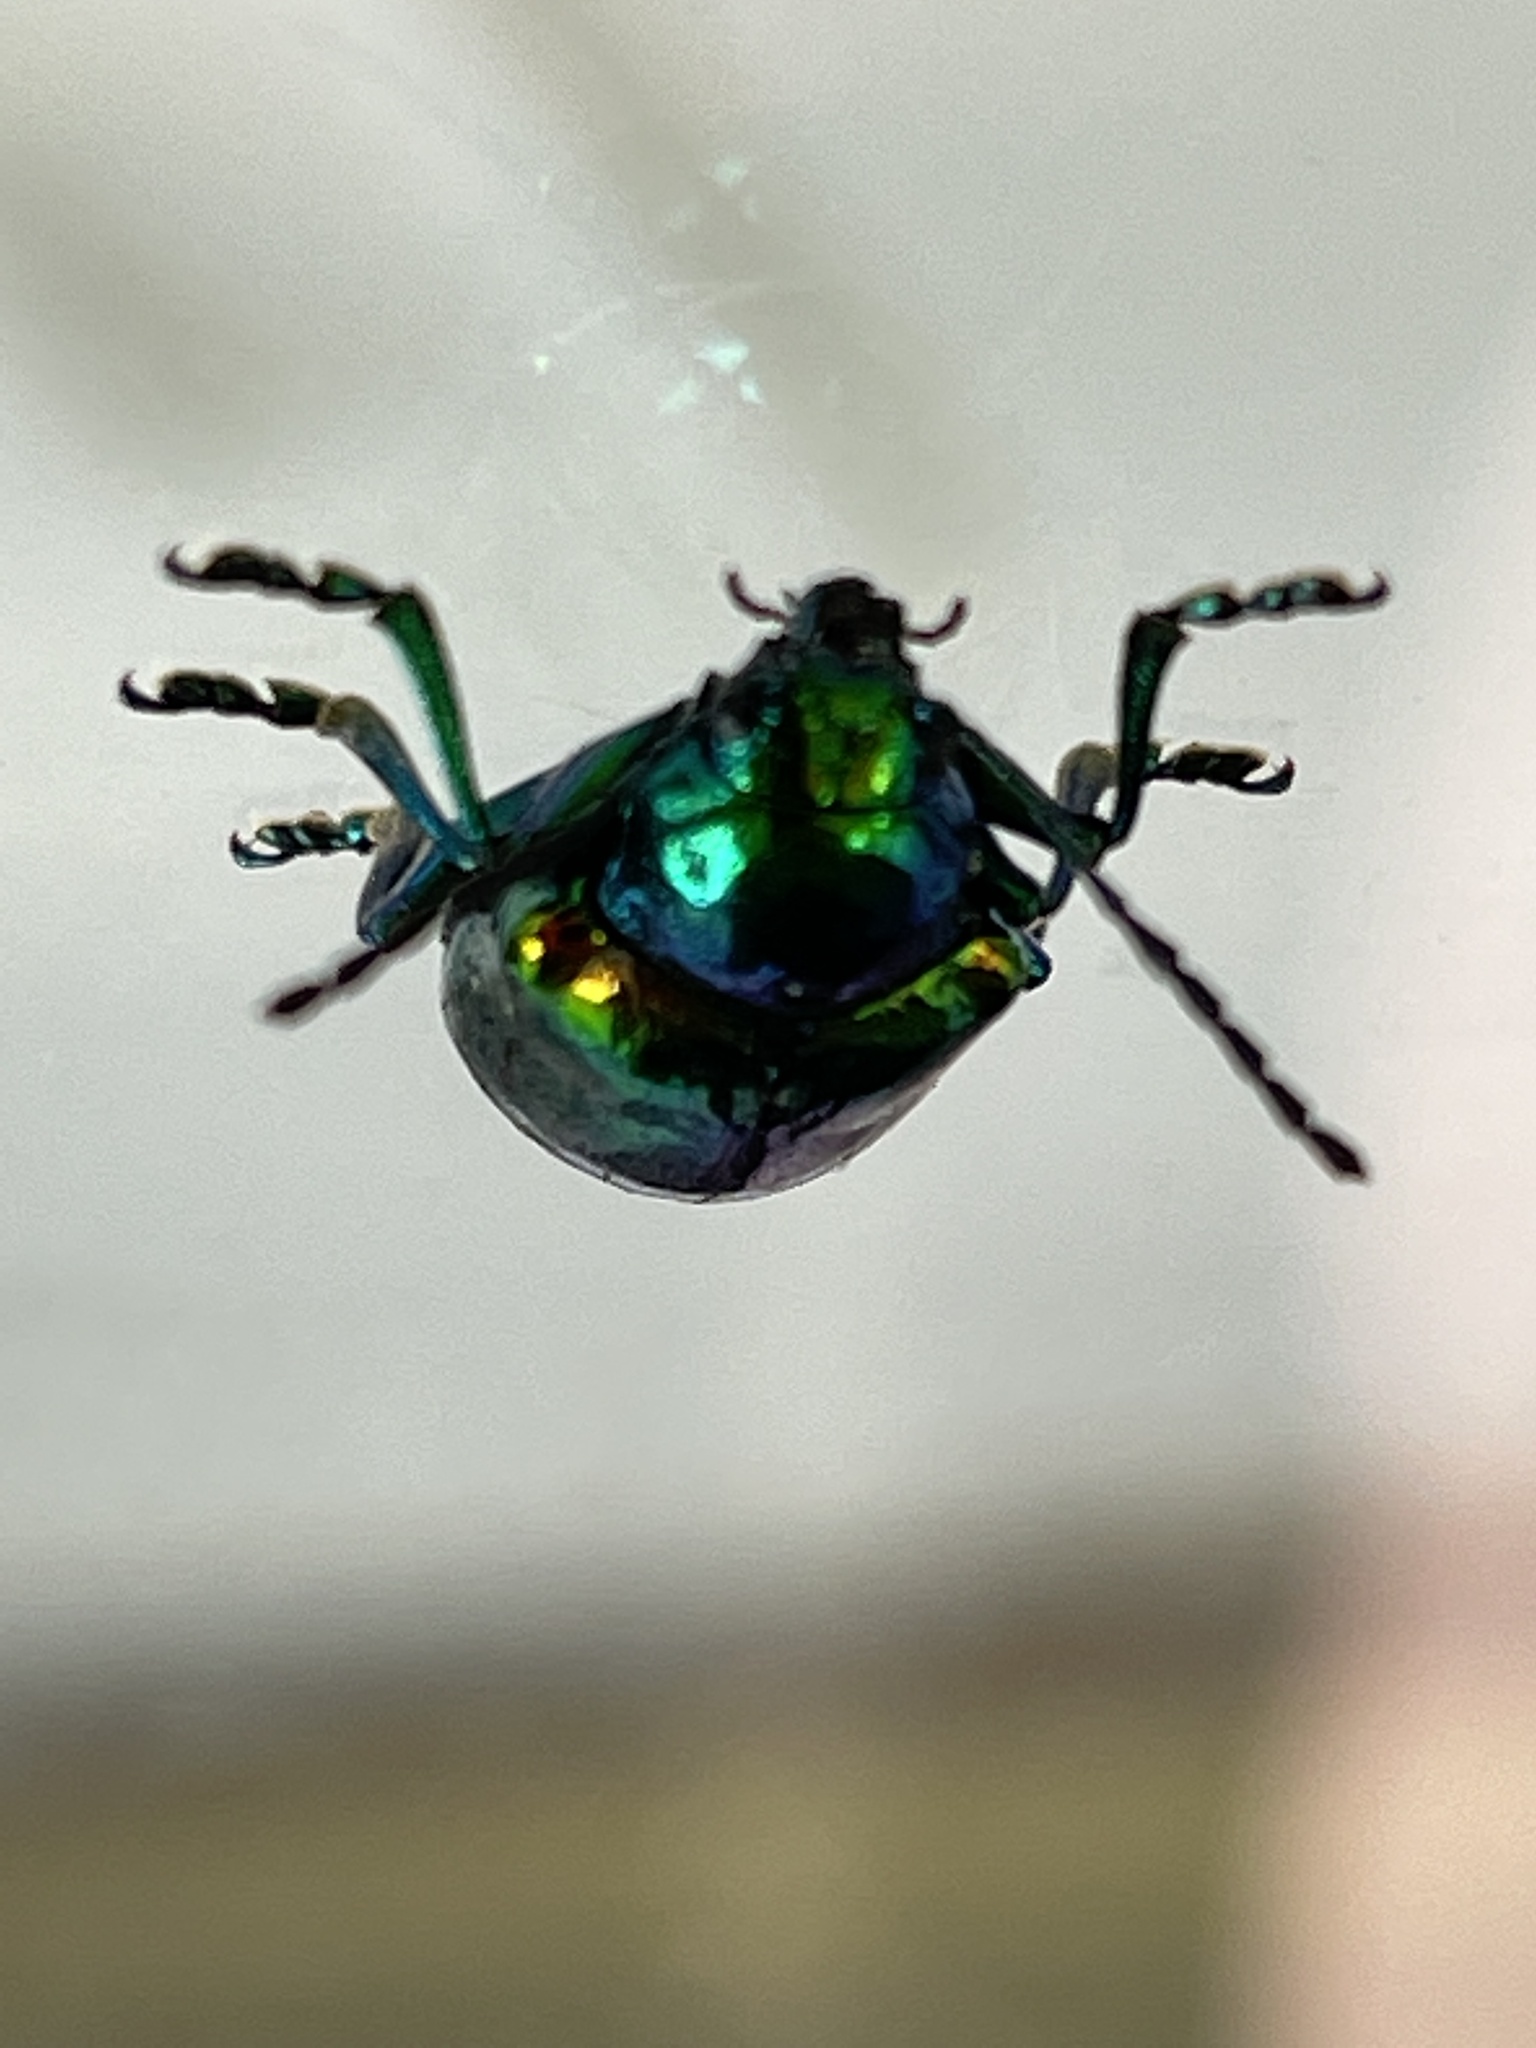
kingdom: Animalia
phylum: Arthropoda
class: Insecta
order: Coleoptera
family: Chrysomelidae
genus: Chrysochus
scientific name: Chrysochus auratus
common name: Dogbane leaf beetle
